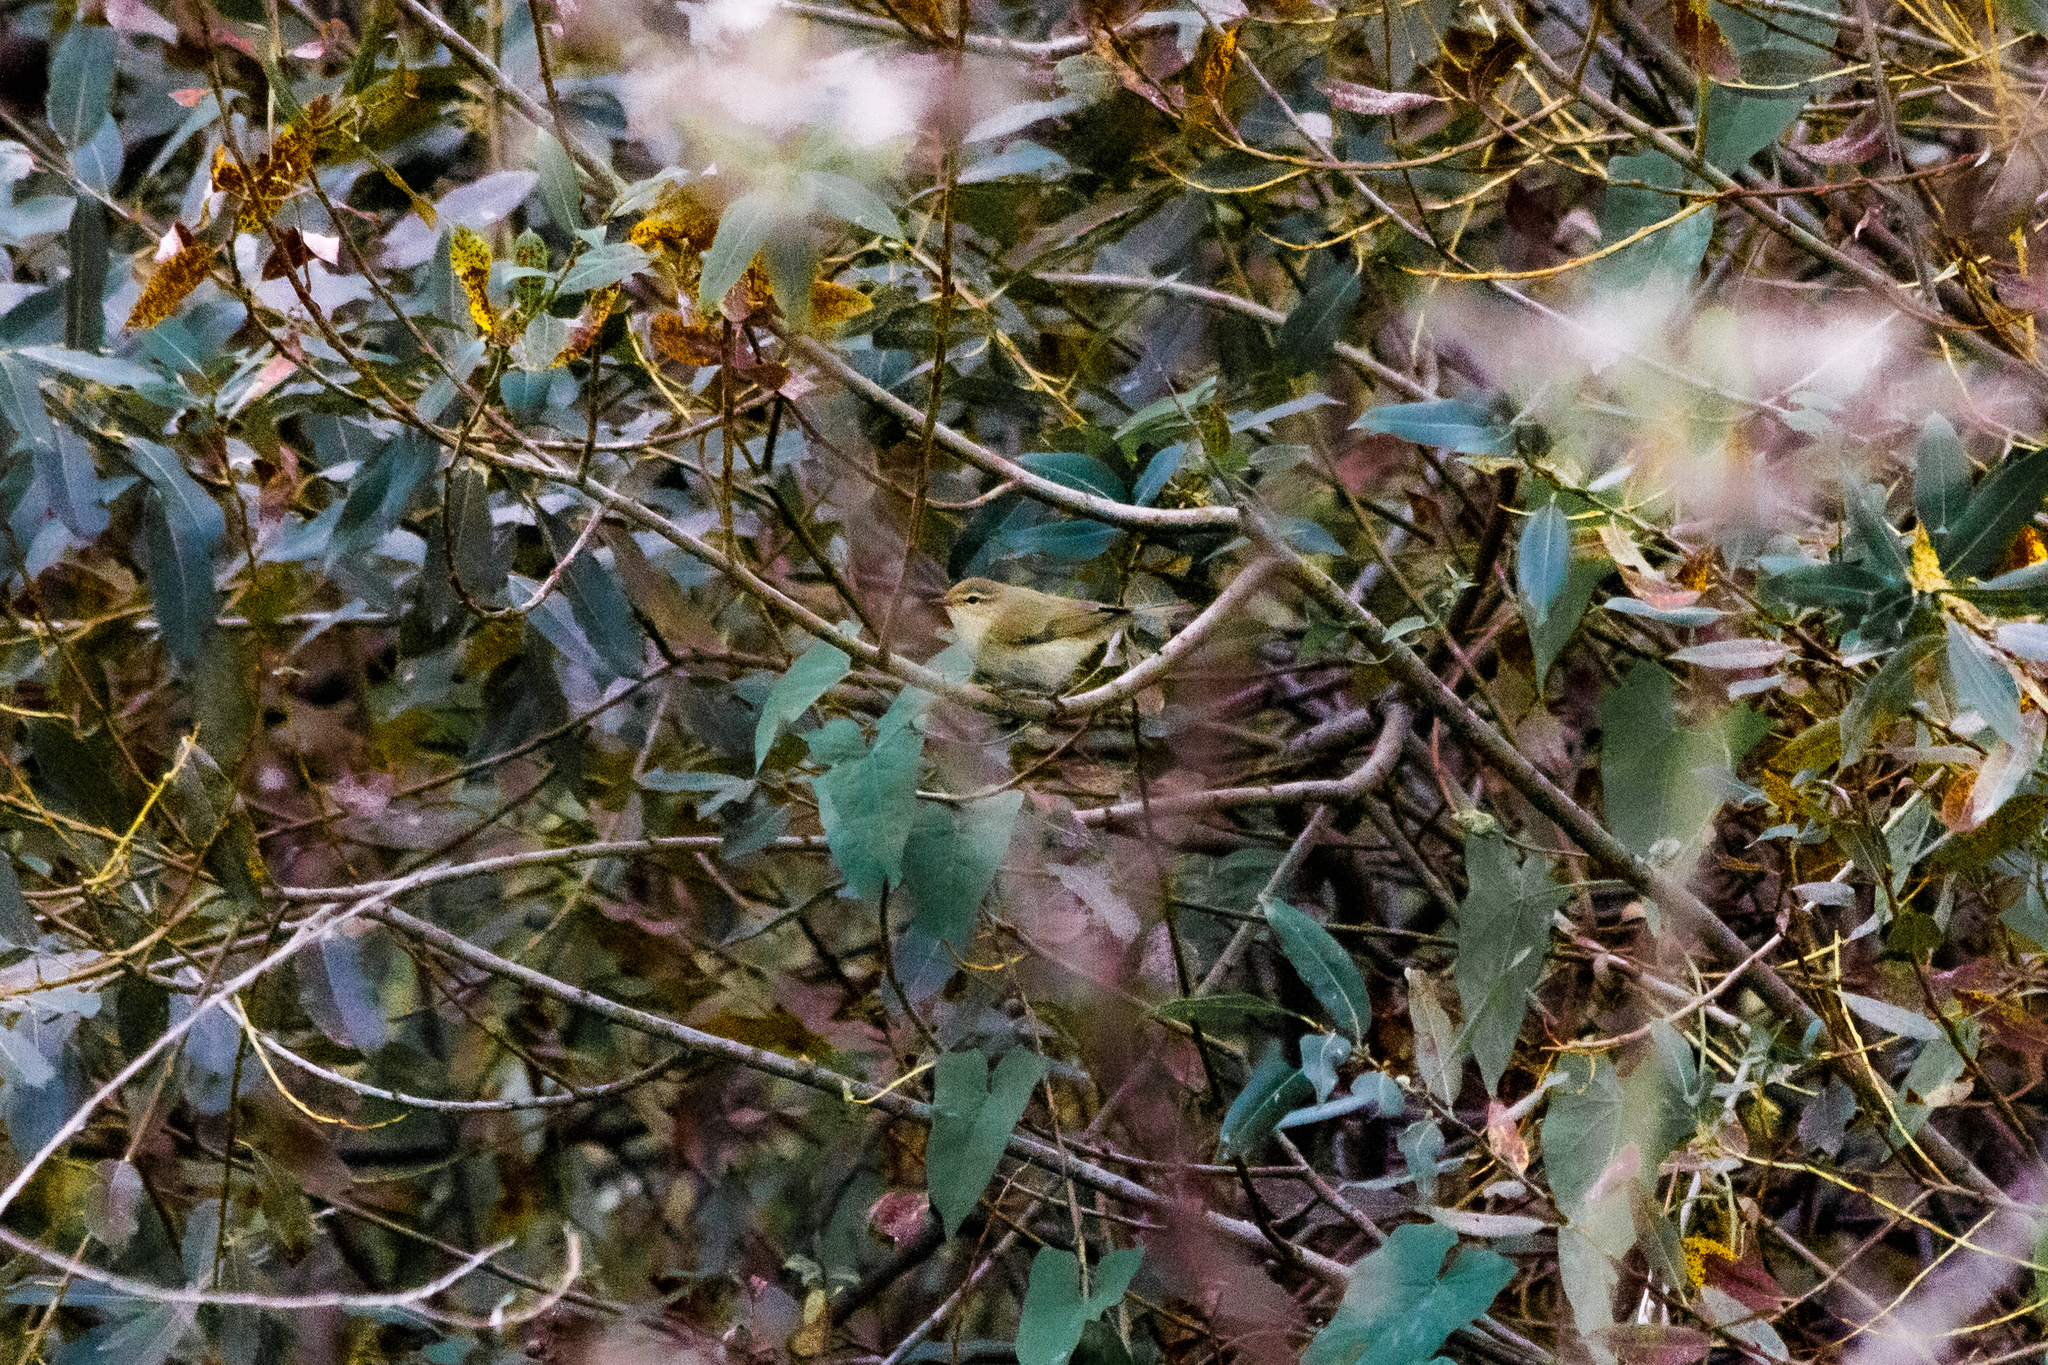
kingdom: Animalia
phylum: Chordata
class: Aves
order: Passeriformes
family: Phylloscopidae
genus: Phylloscopus
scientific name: Phylloscopus collybita
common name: Common chiffchaff
